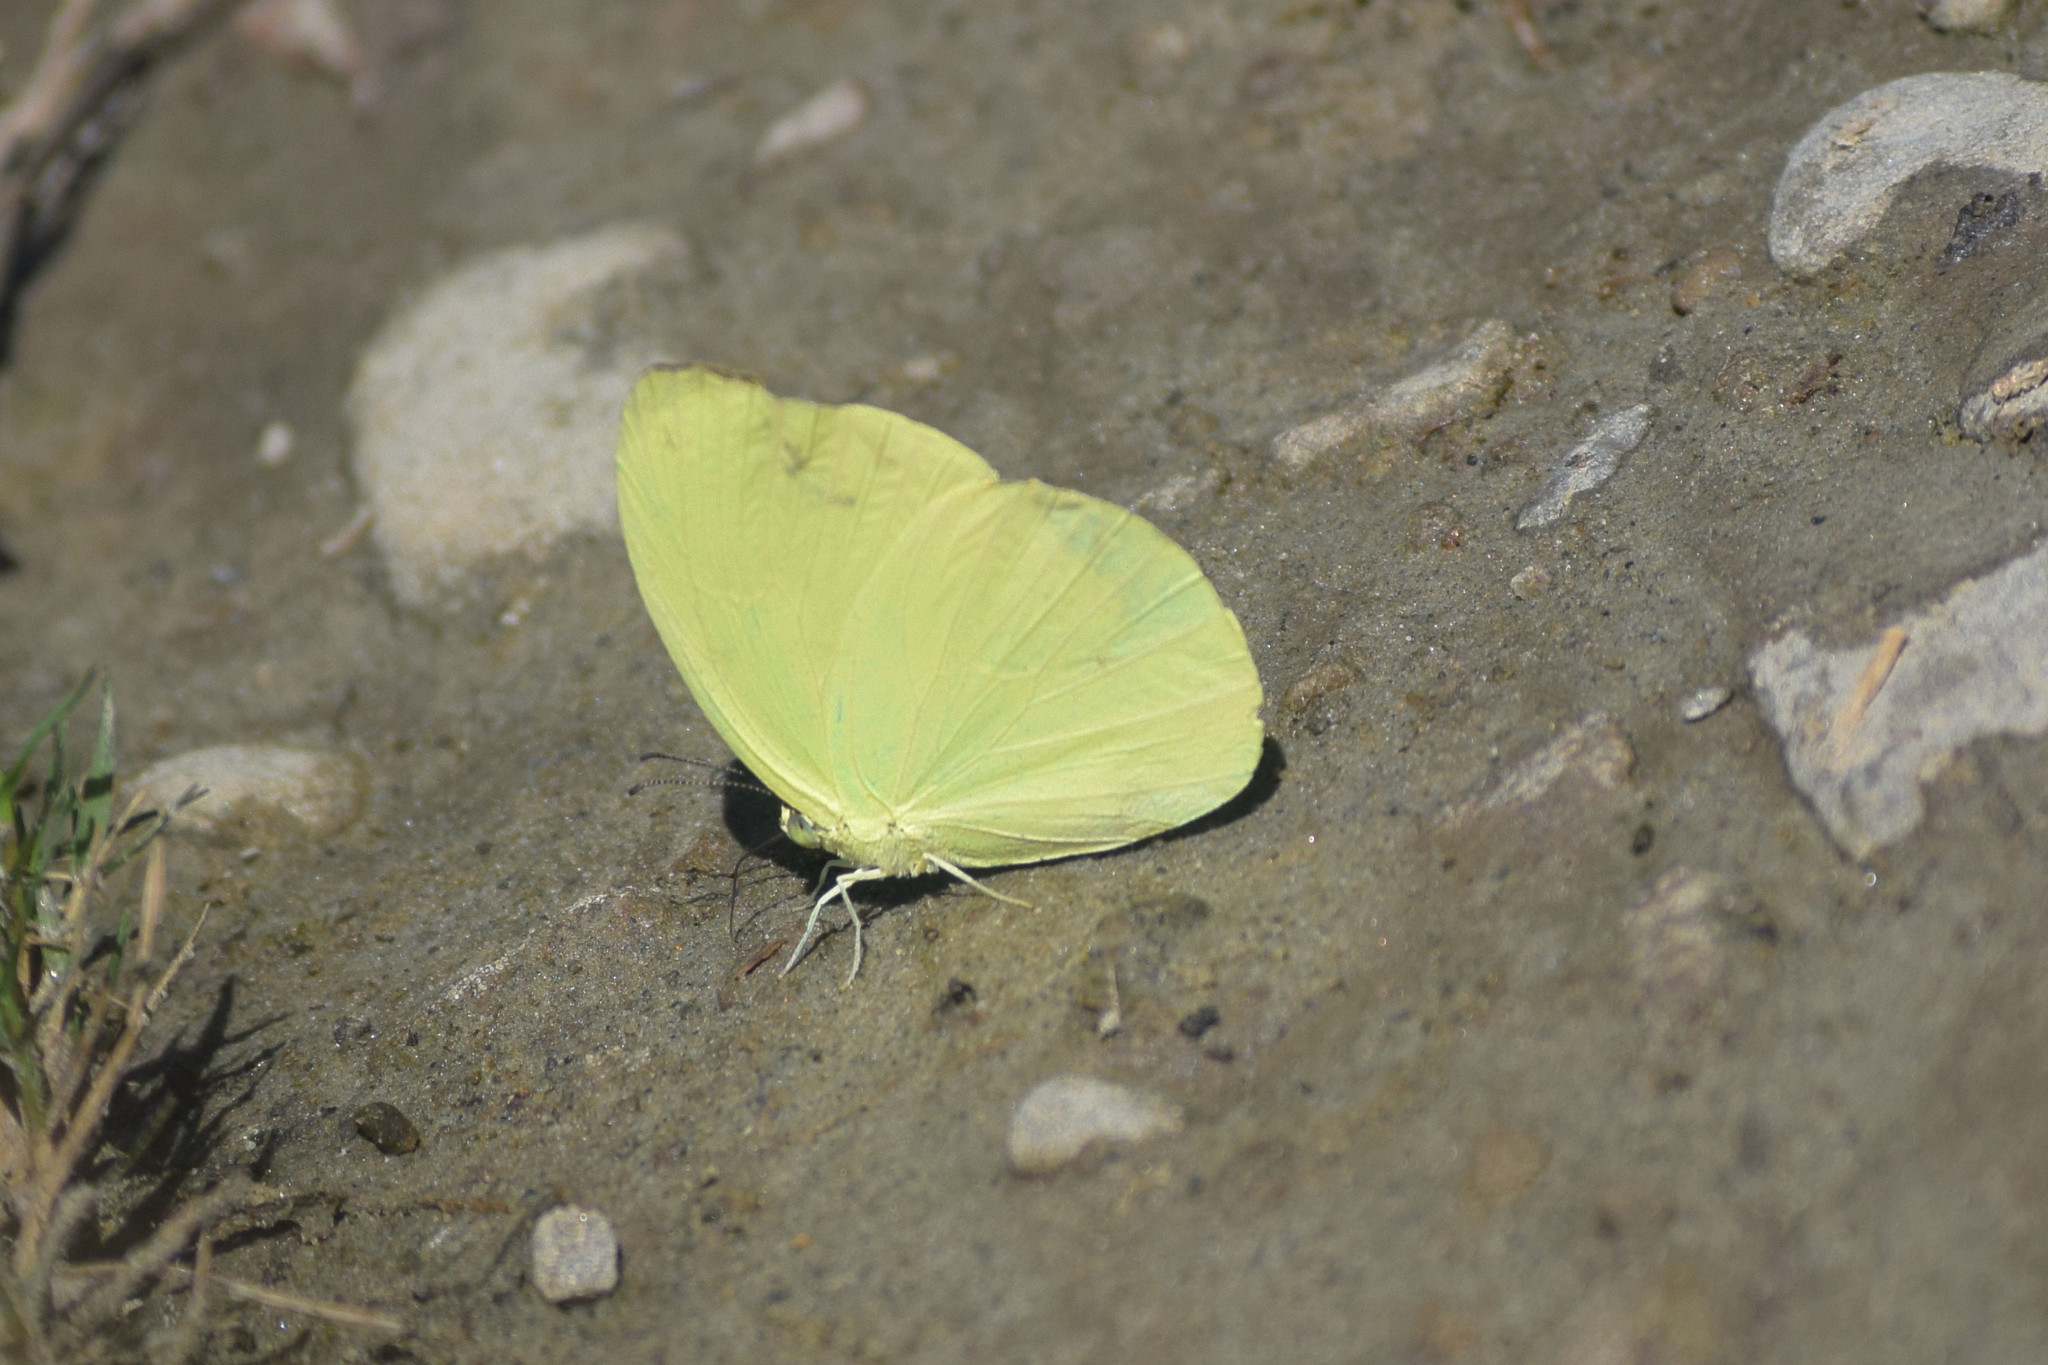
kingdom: Animalia
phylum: Arthropoda
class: Insecta
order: Lepidoptera
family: Pieridae
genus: Gandaca
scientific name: Gandaca harina
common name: Tree yellow
